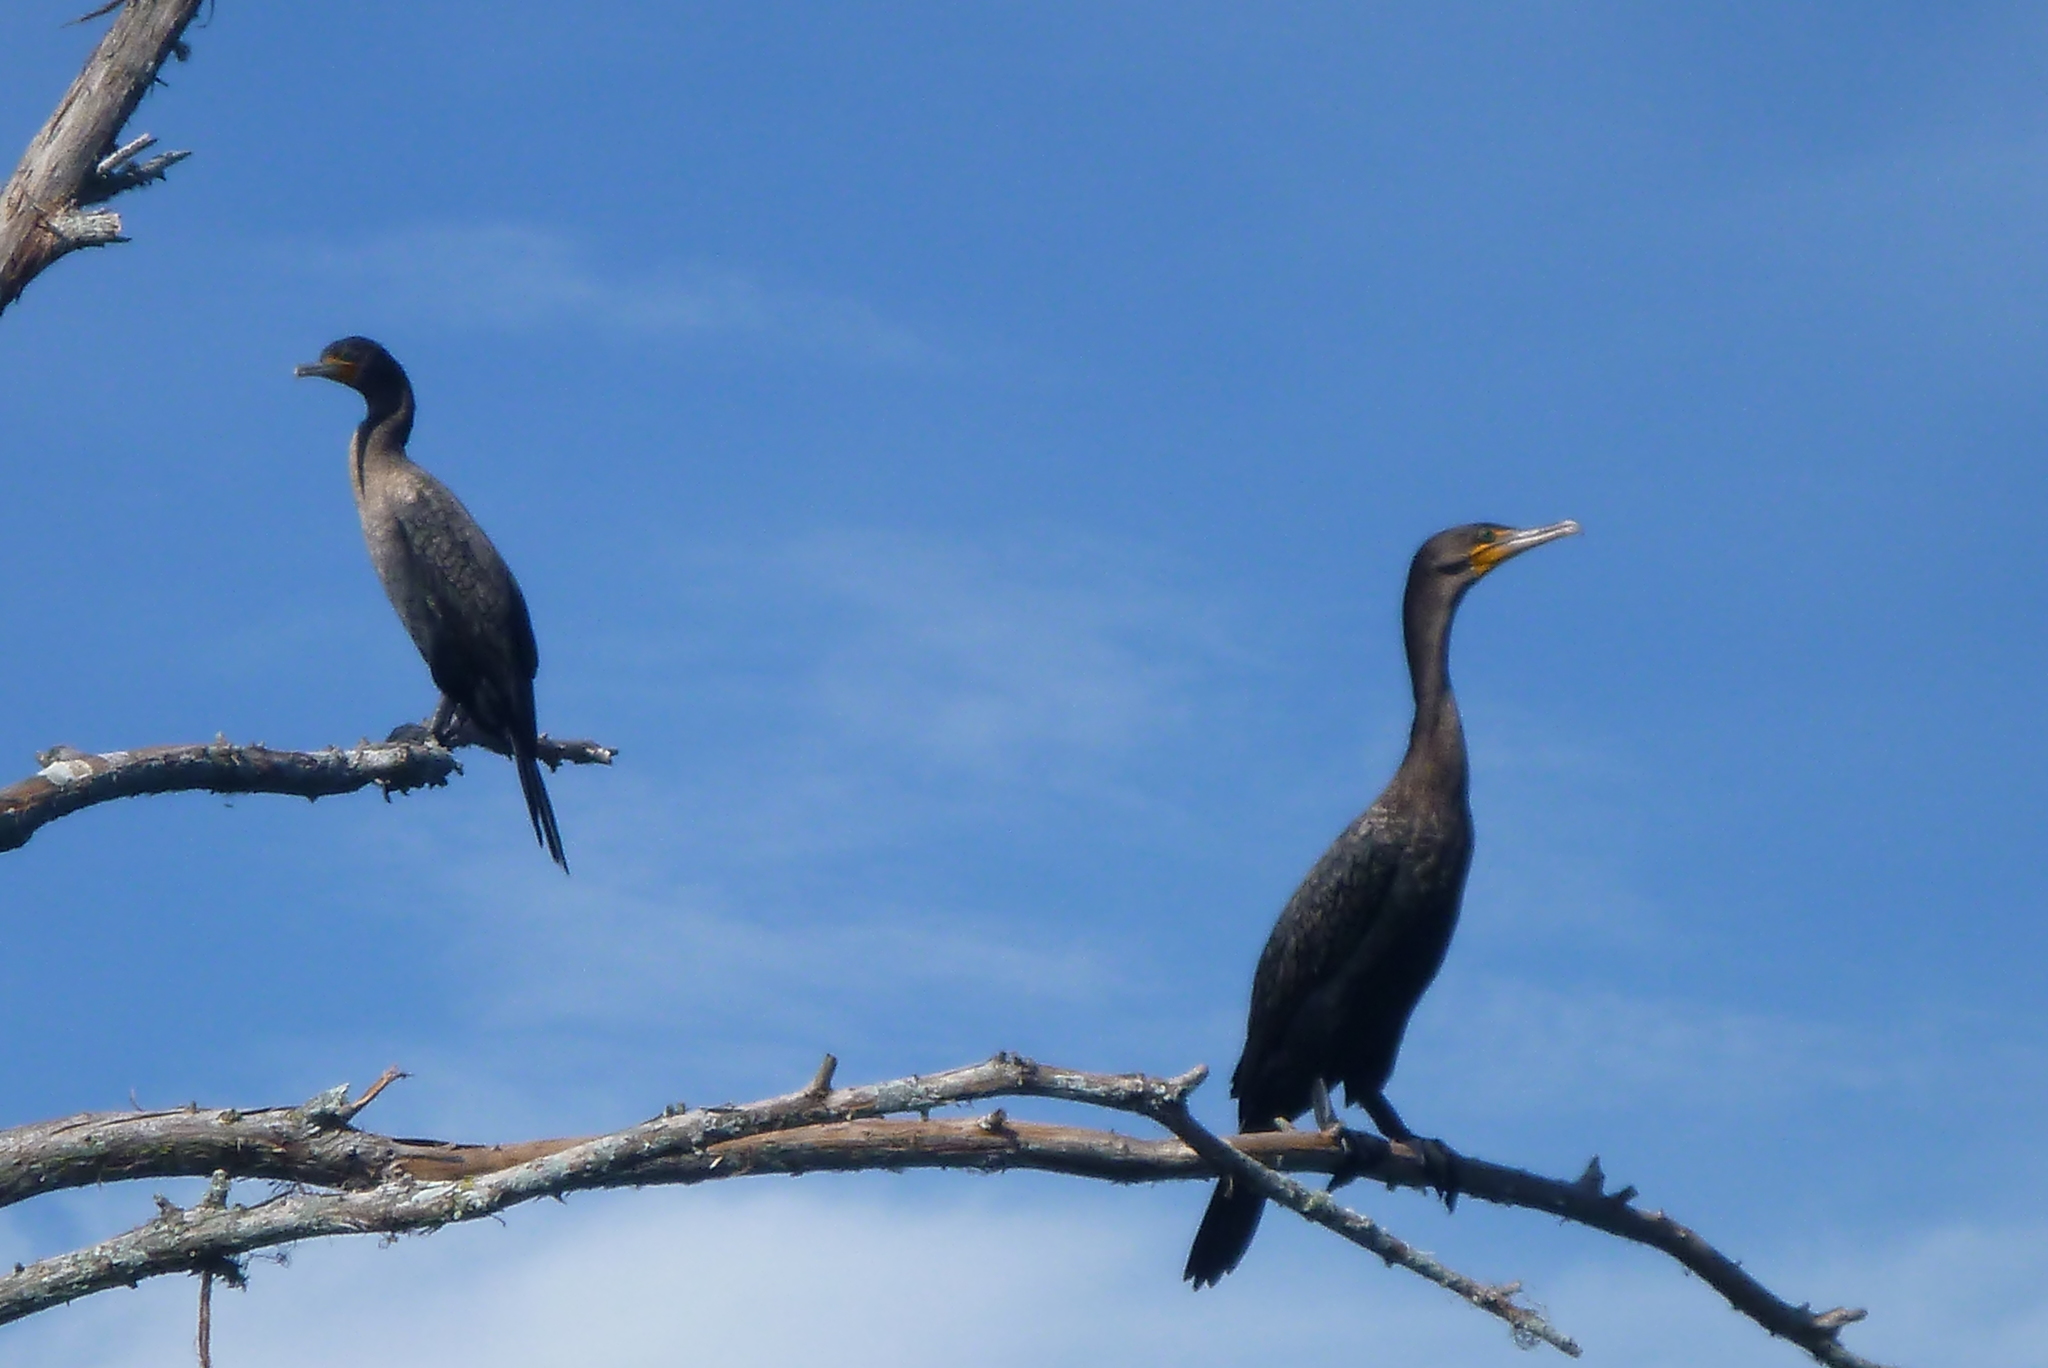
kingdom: Animalia
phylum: Chordata
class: Aves
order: Suliformes
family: Phalacrocoracidae
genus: Phalacrocorax
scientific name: Phalacrocorax auritus
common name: Double-crested cormorant
